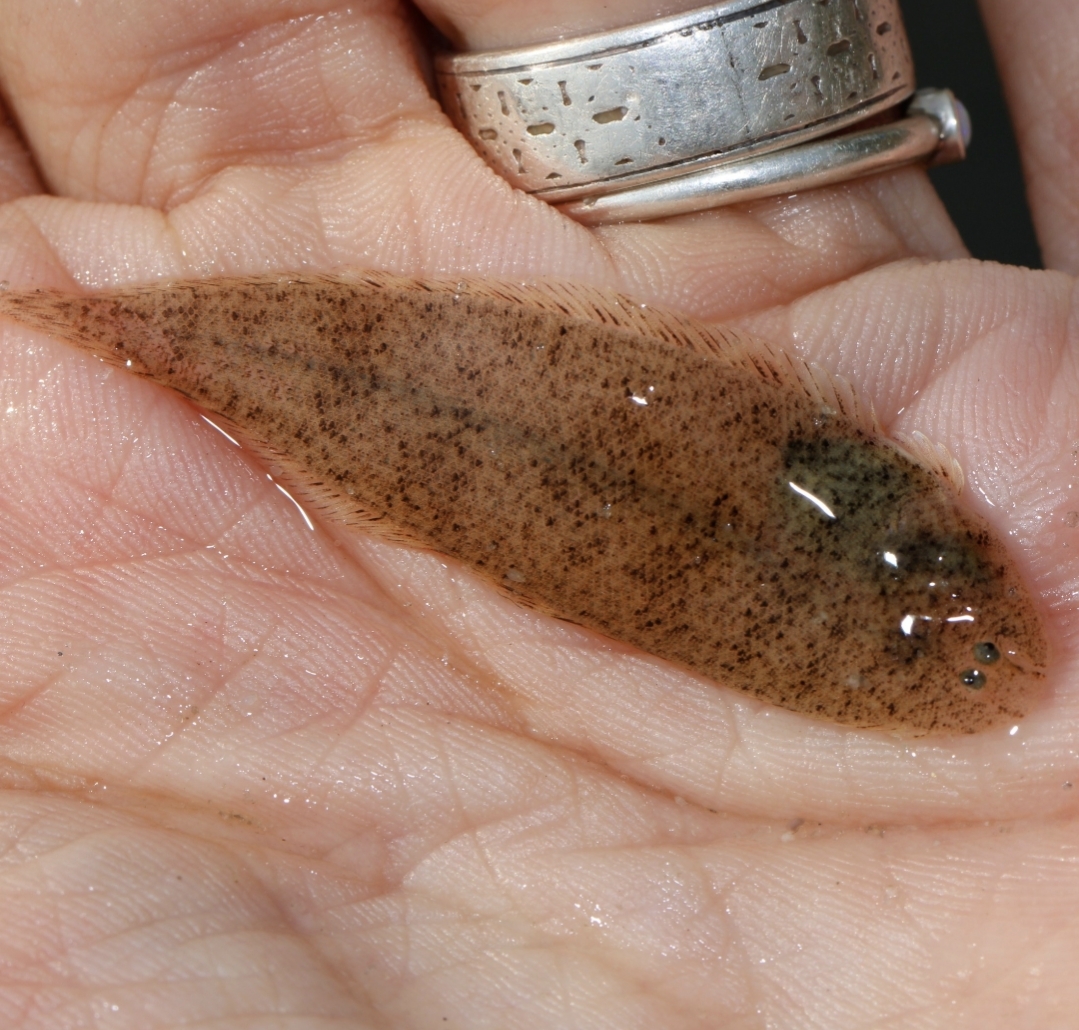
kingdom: Animalia
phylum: Chordata
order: Pleuronectiformes
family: Cynoglossidae
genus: Symphurus
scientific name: Symphurus plagiusa
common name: Blackcheek tonguefish
